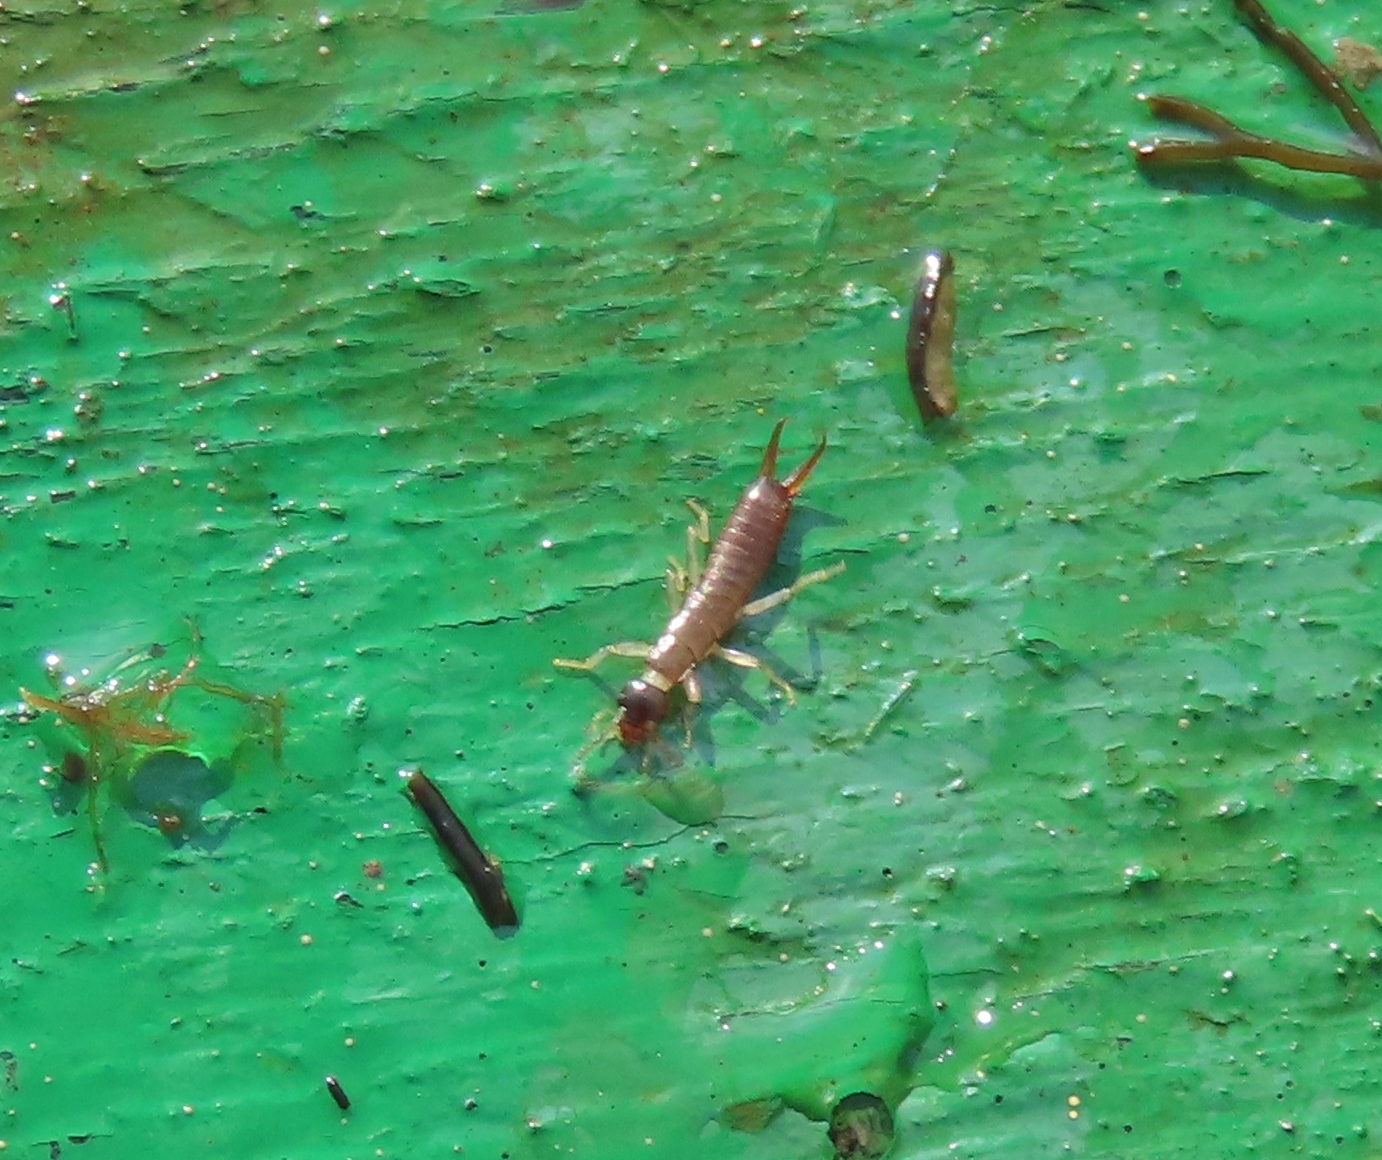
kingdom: Animalia
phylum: Arthropoda
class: Insecta
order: Dermaptera
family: Anisolabididae
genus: Anisolabis
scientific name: Anisolabis maritima
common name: Maritime earwig
